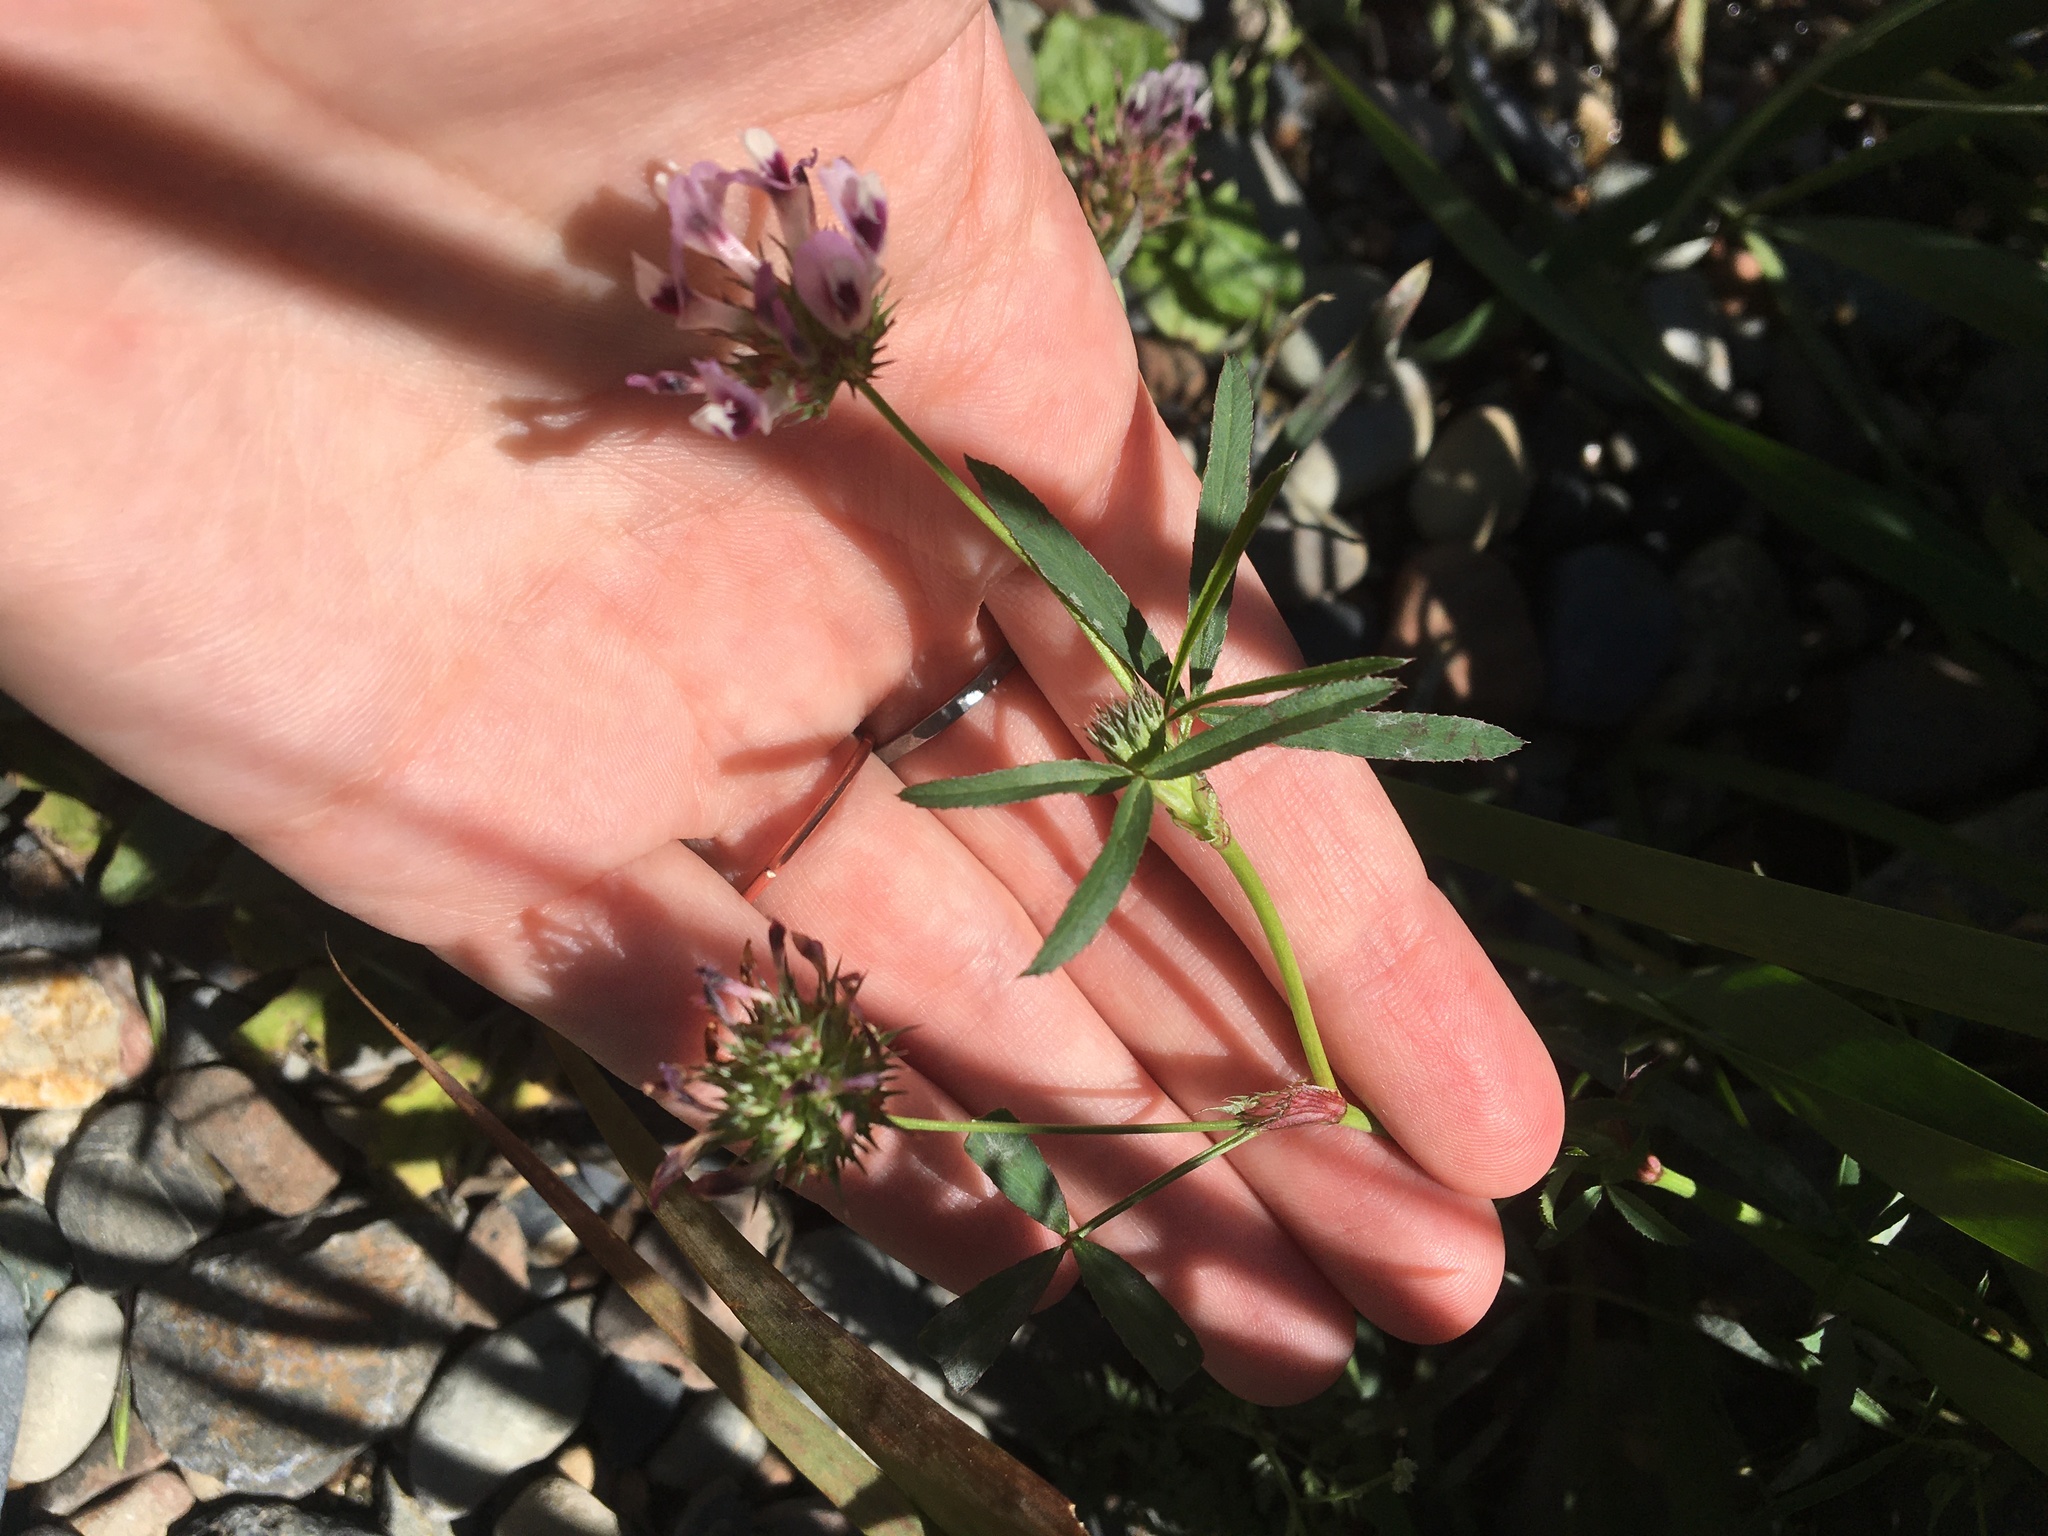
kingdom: Plantae
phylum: Tracheophyta
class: Magnoliopsida
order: Fabales
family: Fabaceae
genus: Trifolium
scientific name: Trifolium willdenovii
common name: Tomcat clover
